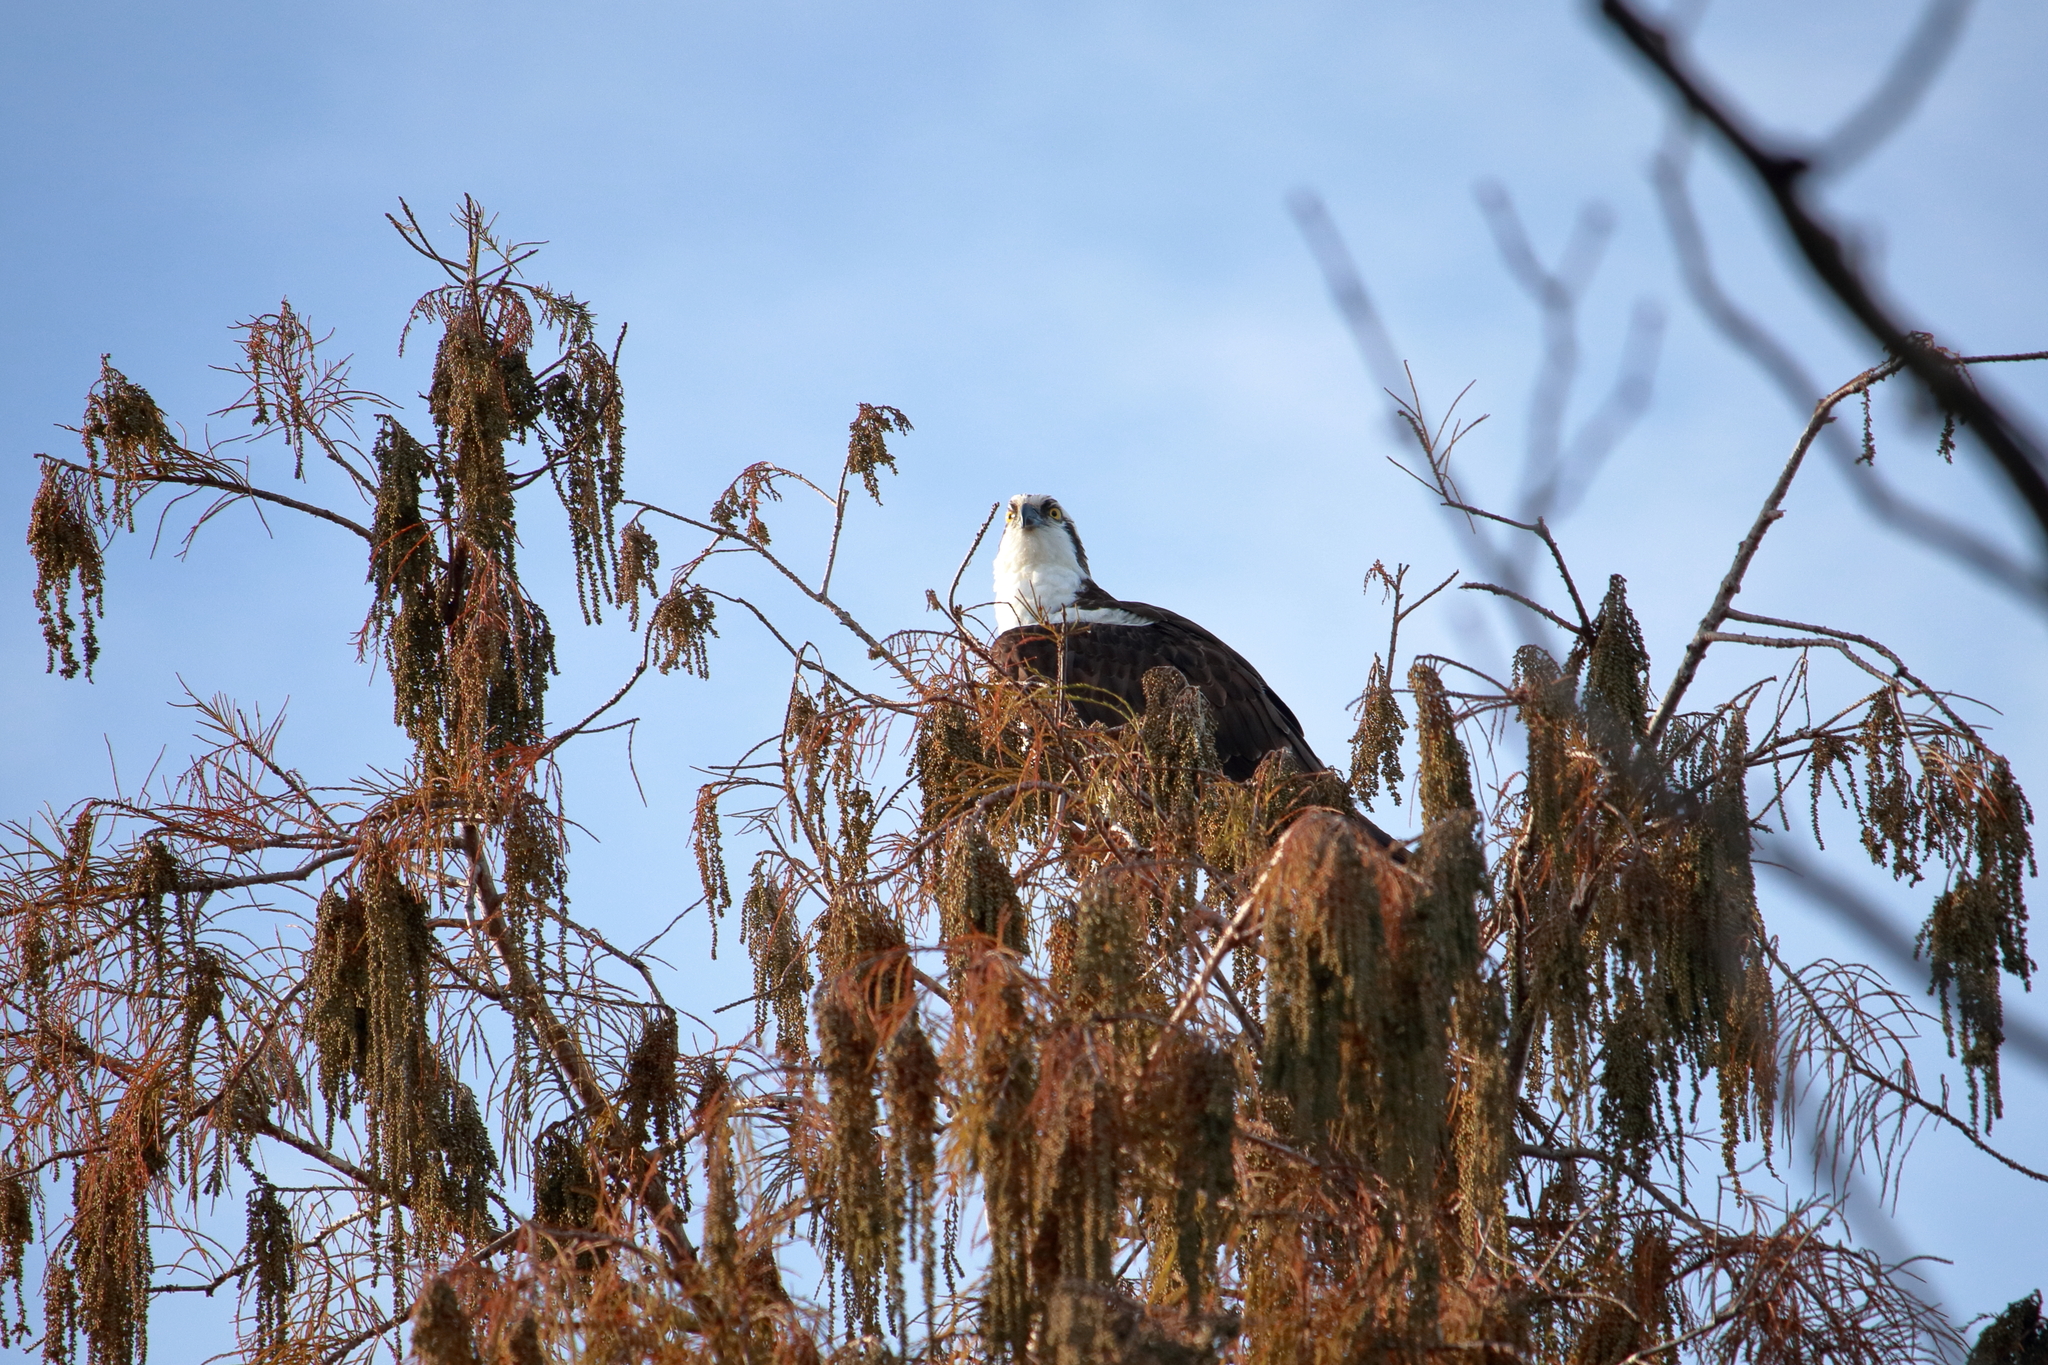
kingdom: Animalia
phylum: Chordata
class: Aves
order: Accipitriformes
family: Pandionidae
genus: Pandion
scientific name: Pandion haliaetus
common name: Osprey
